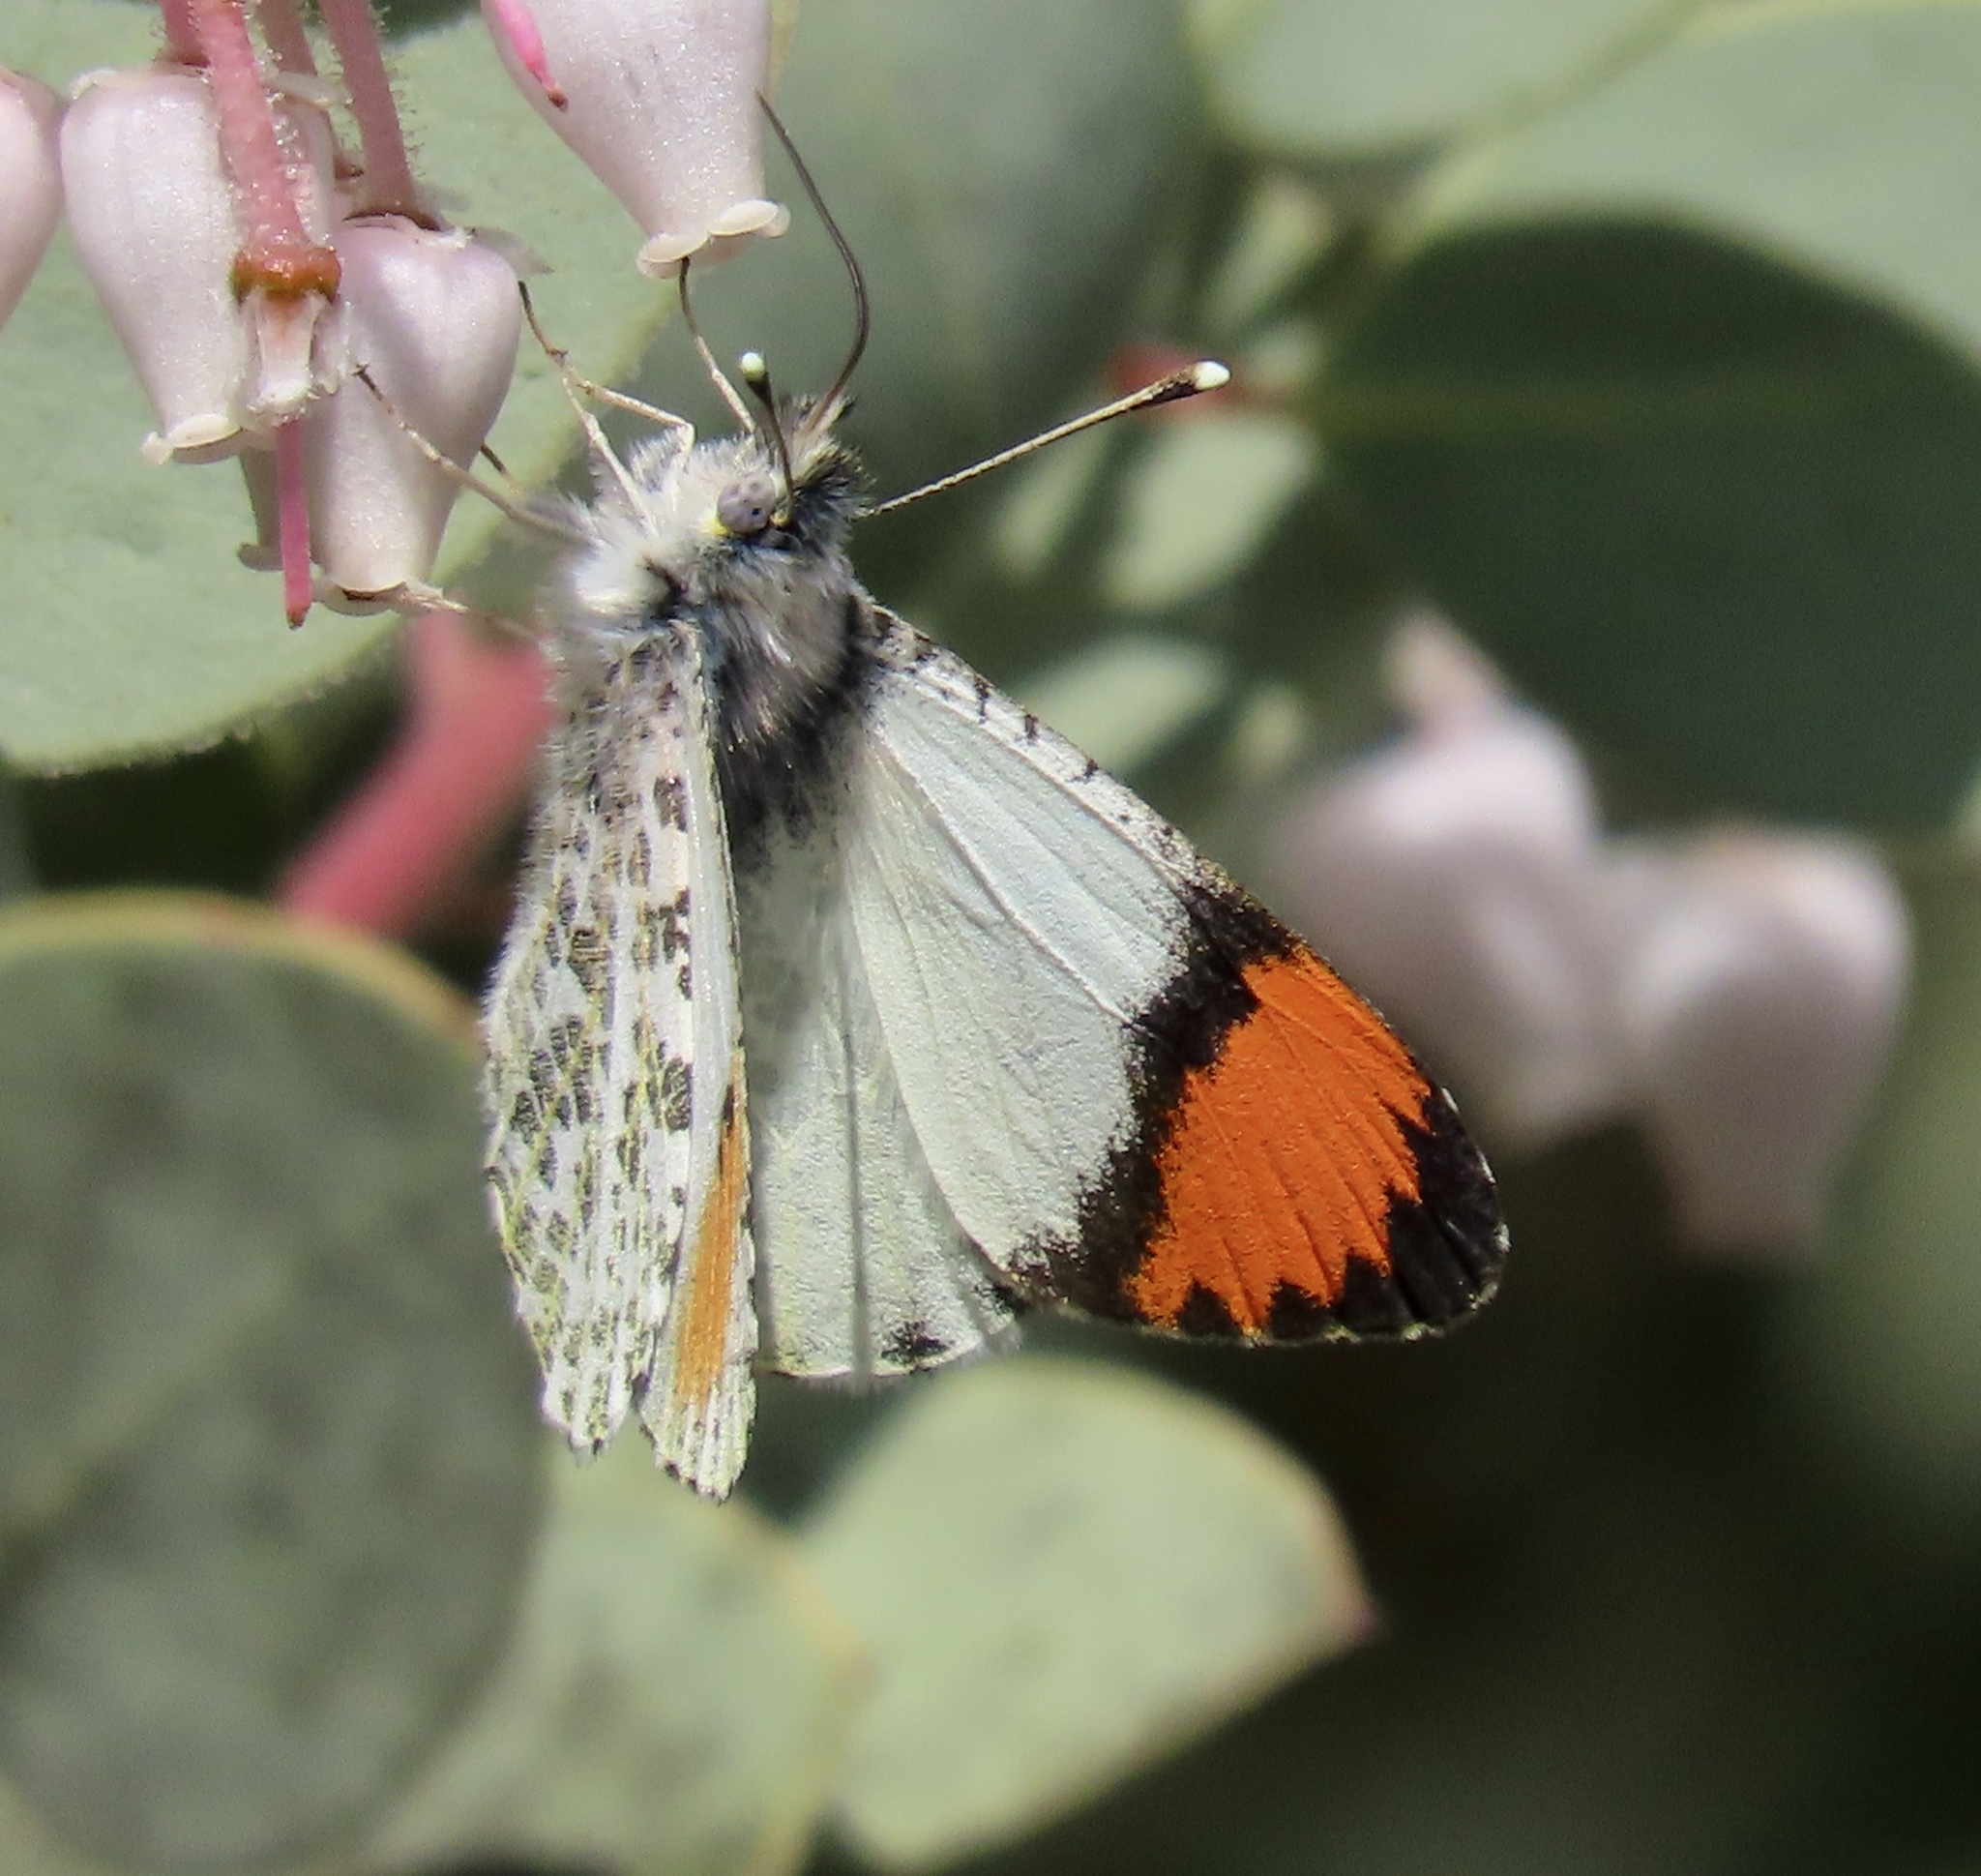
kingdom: Animalia
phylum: Arthropoda
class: Insecta
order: Lepidoptera
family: Pieridae
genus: Anthocharis
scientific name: Anthocharis sara
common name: Sara's orangetip
